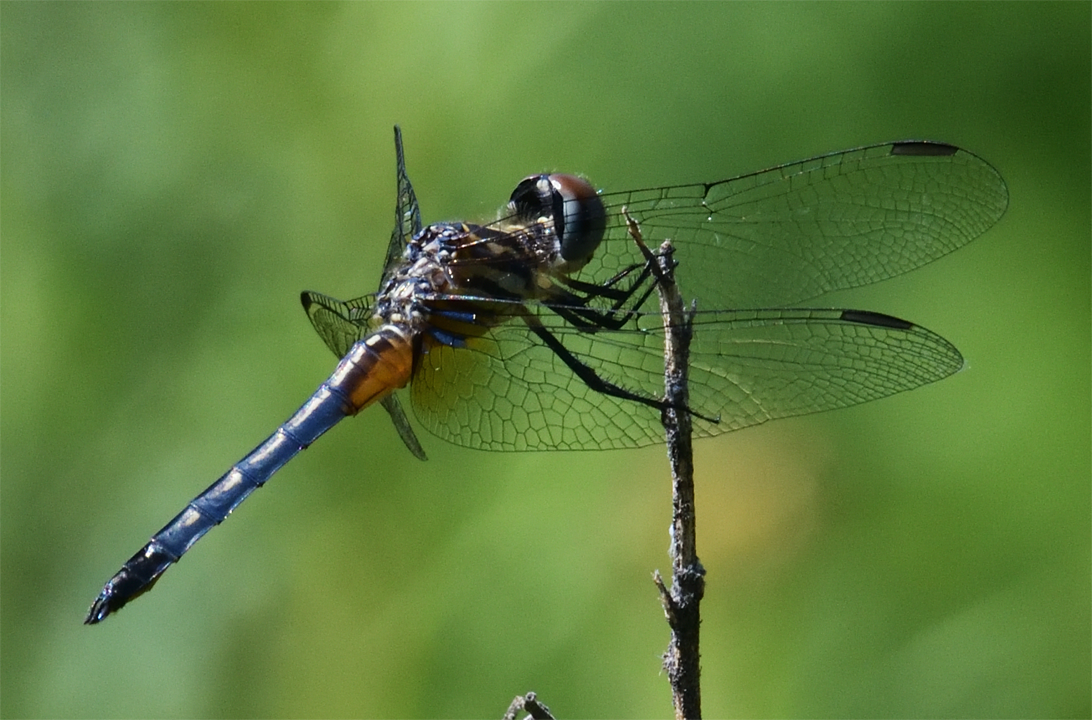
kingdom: Animalia
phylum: Arthropoda
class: Insecta
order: Odonata
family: Libellulidae
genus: Pachydiplax
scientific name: Pachydiplax longipennis
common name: Blue dasher
